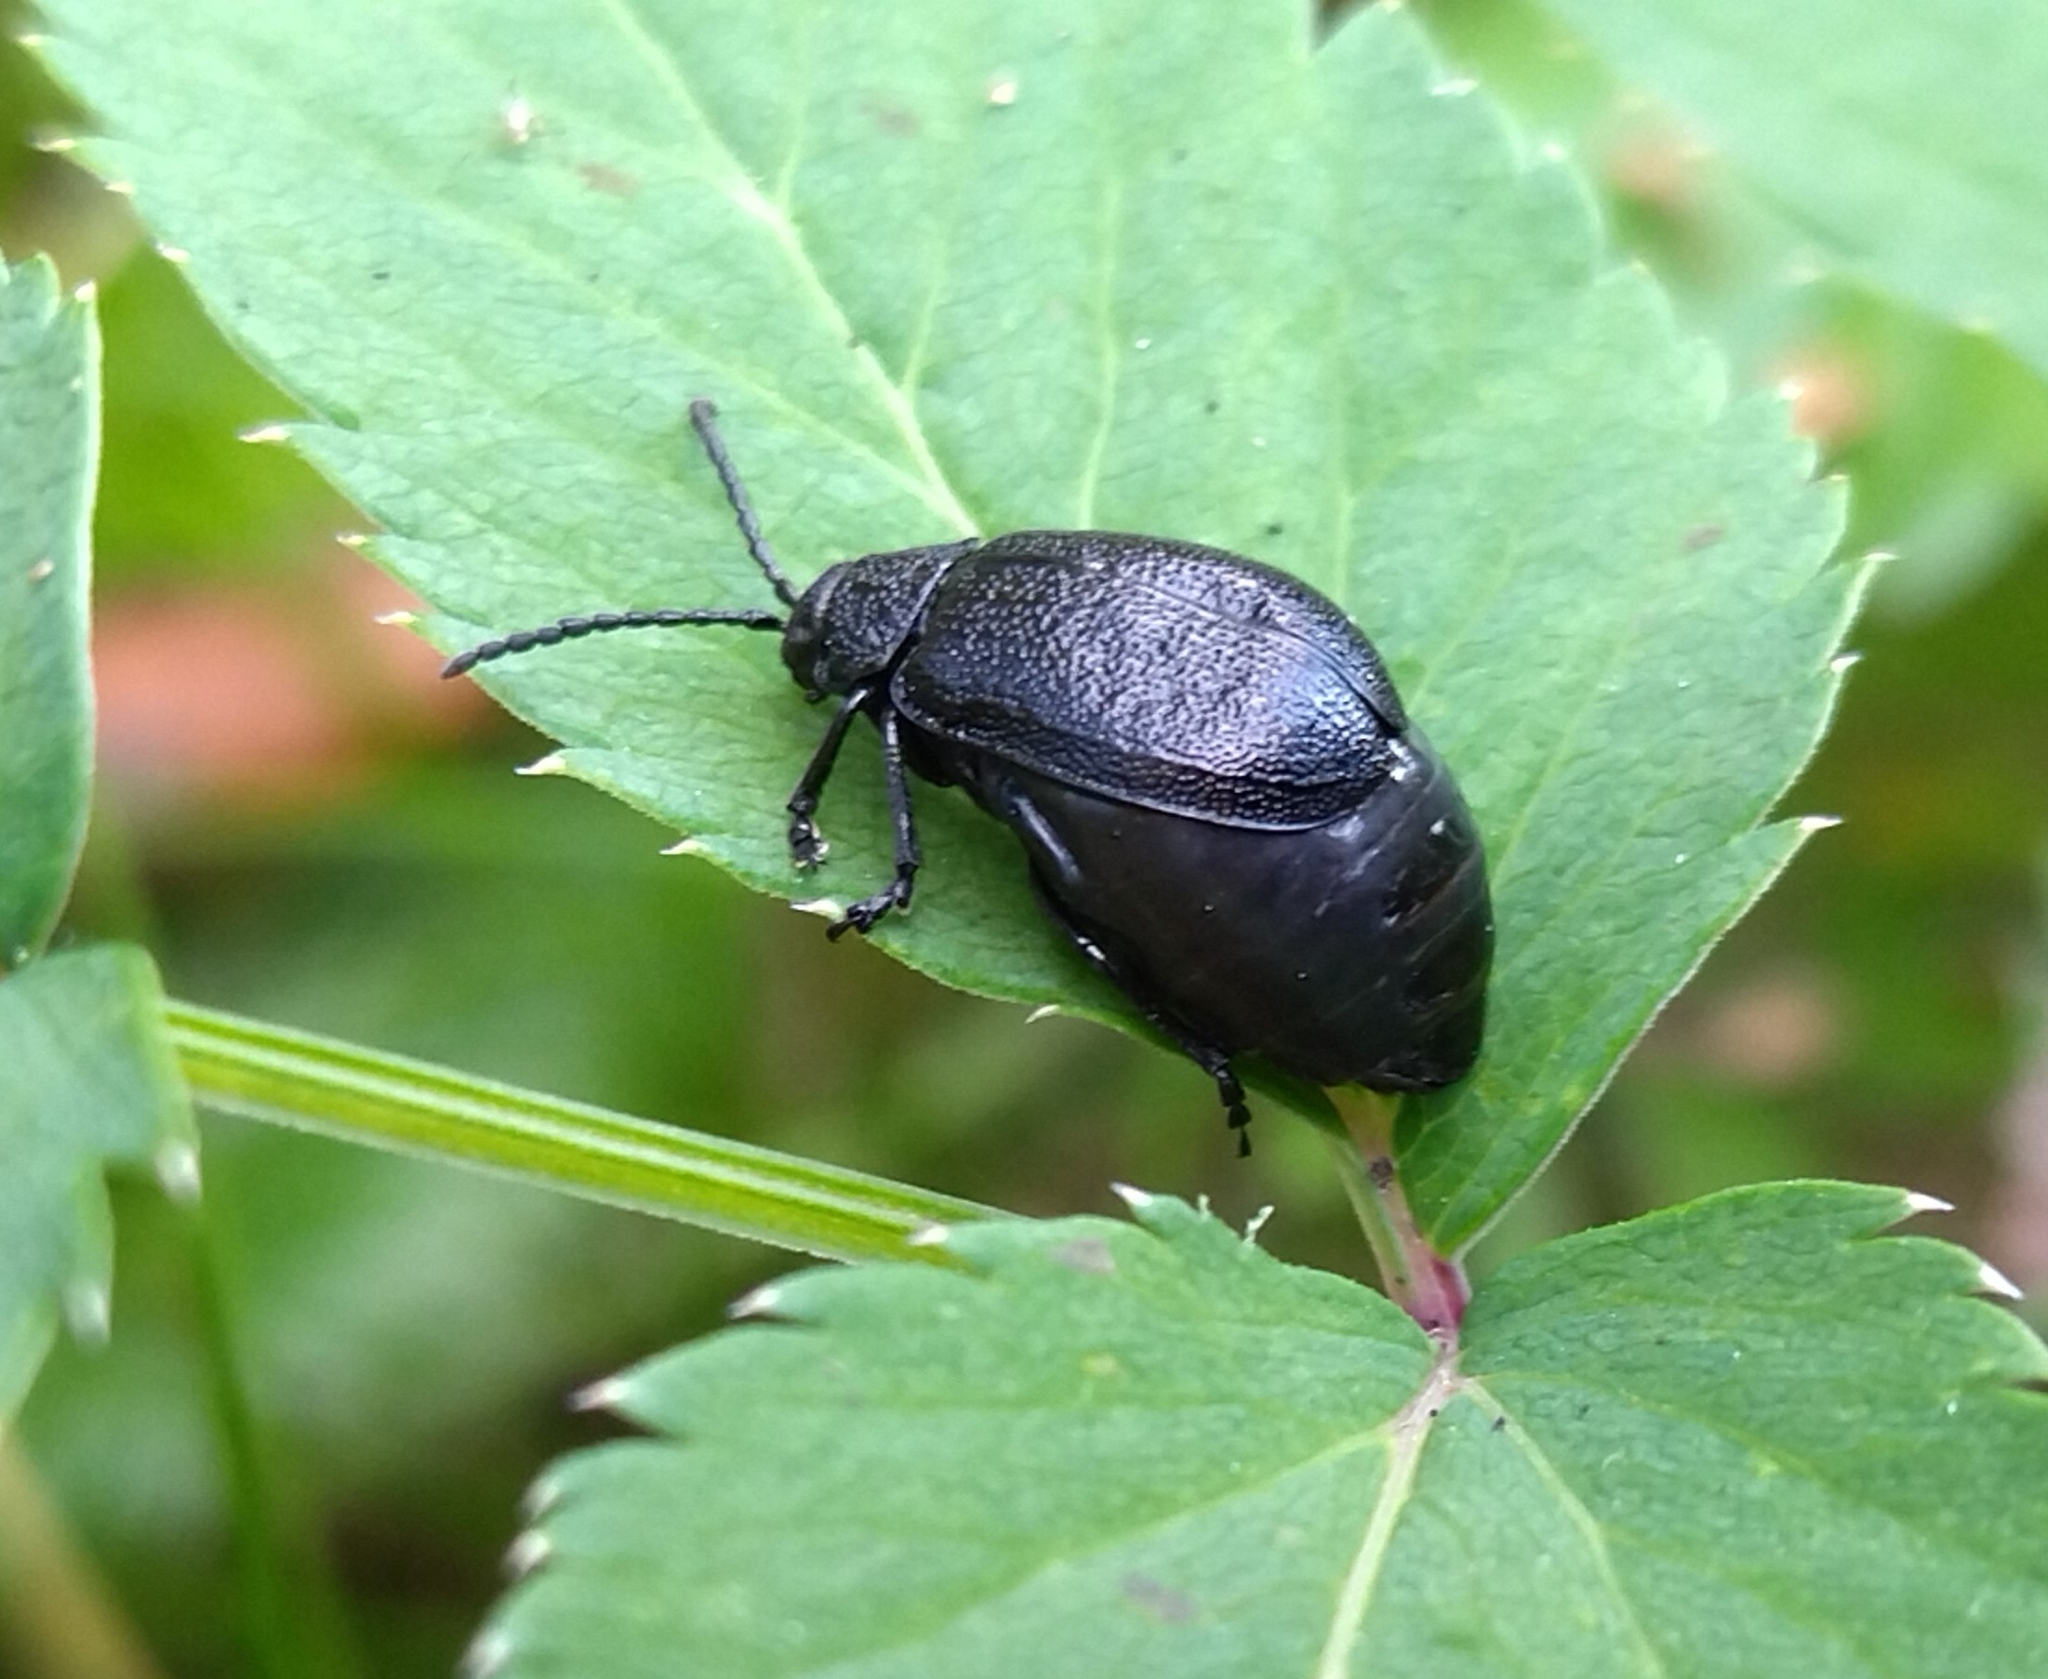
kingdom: Animalia
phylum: Arthropoda
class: Insecta
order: Coleoptera
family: Chrysomelidae
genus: Galeruca
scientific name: Galeruca tanaceti
